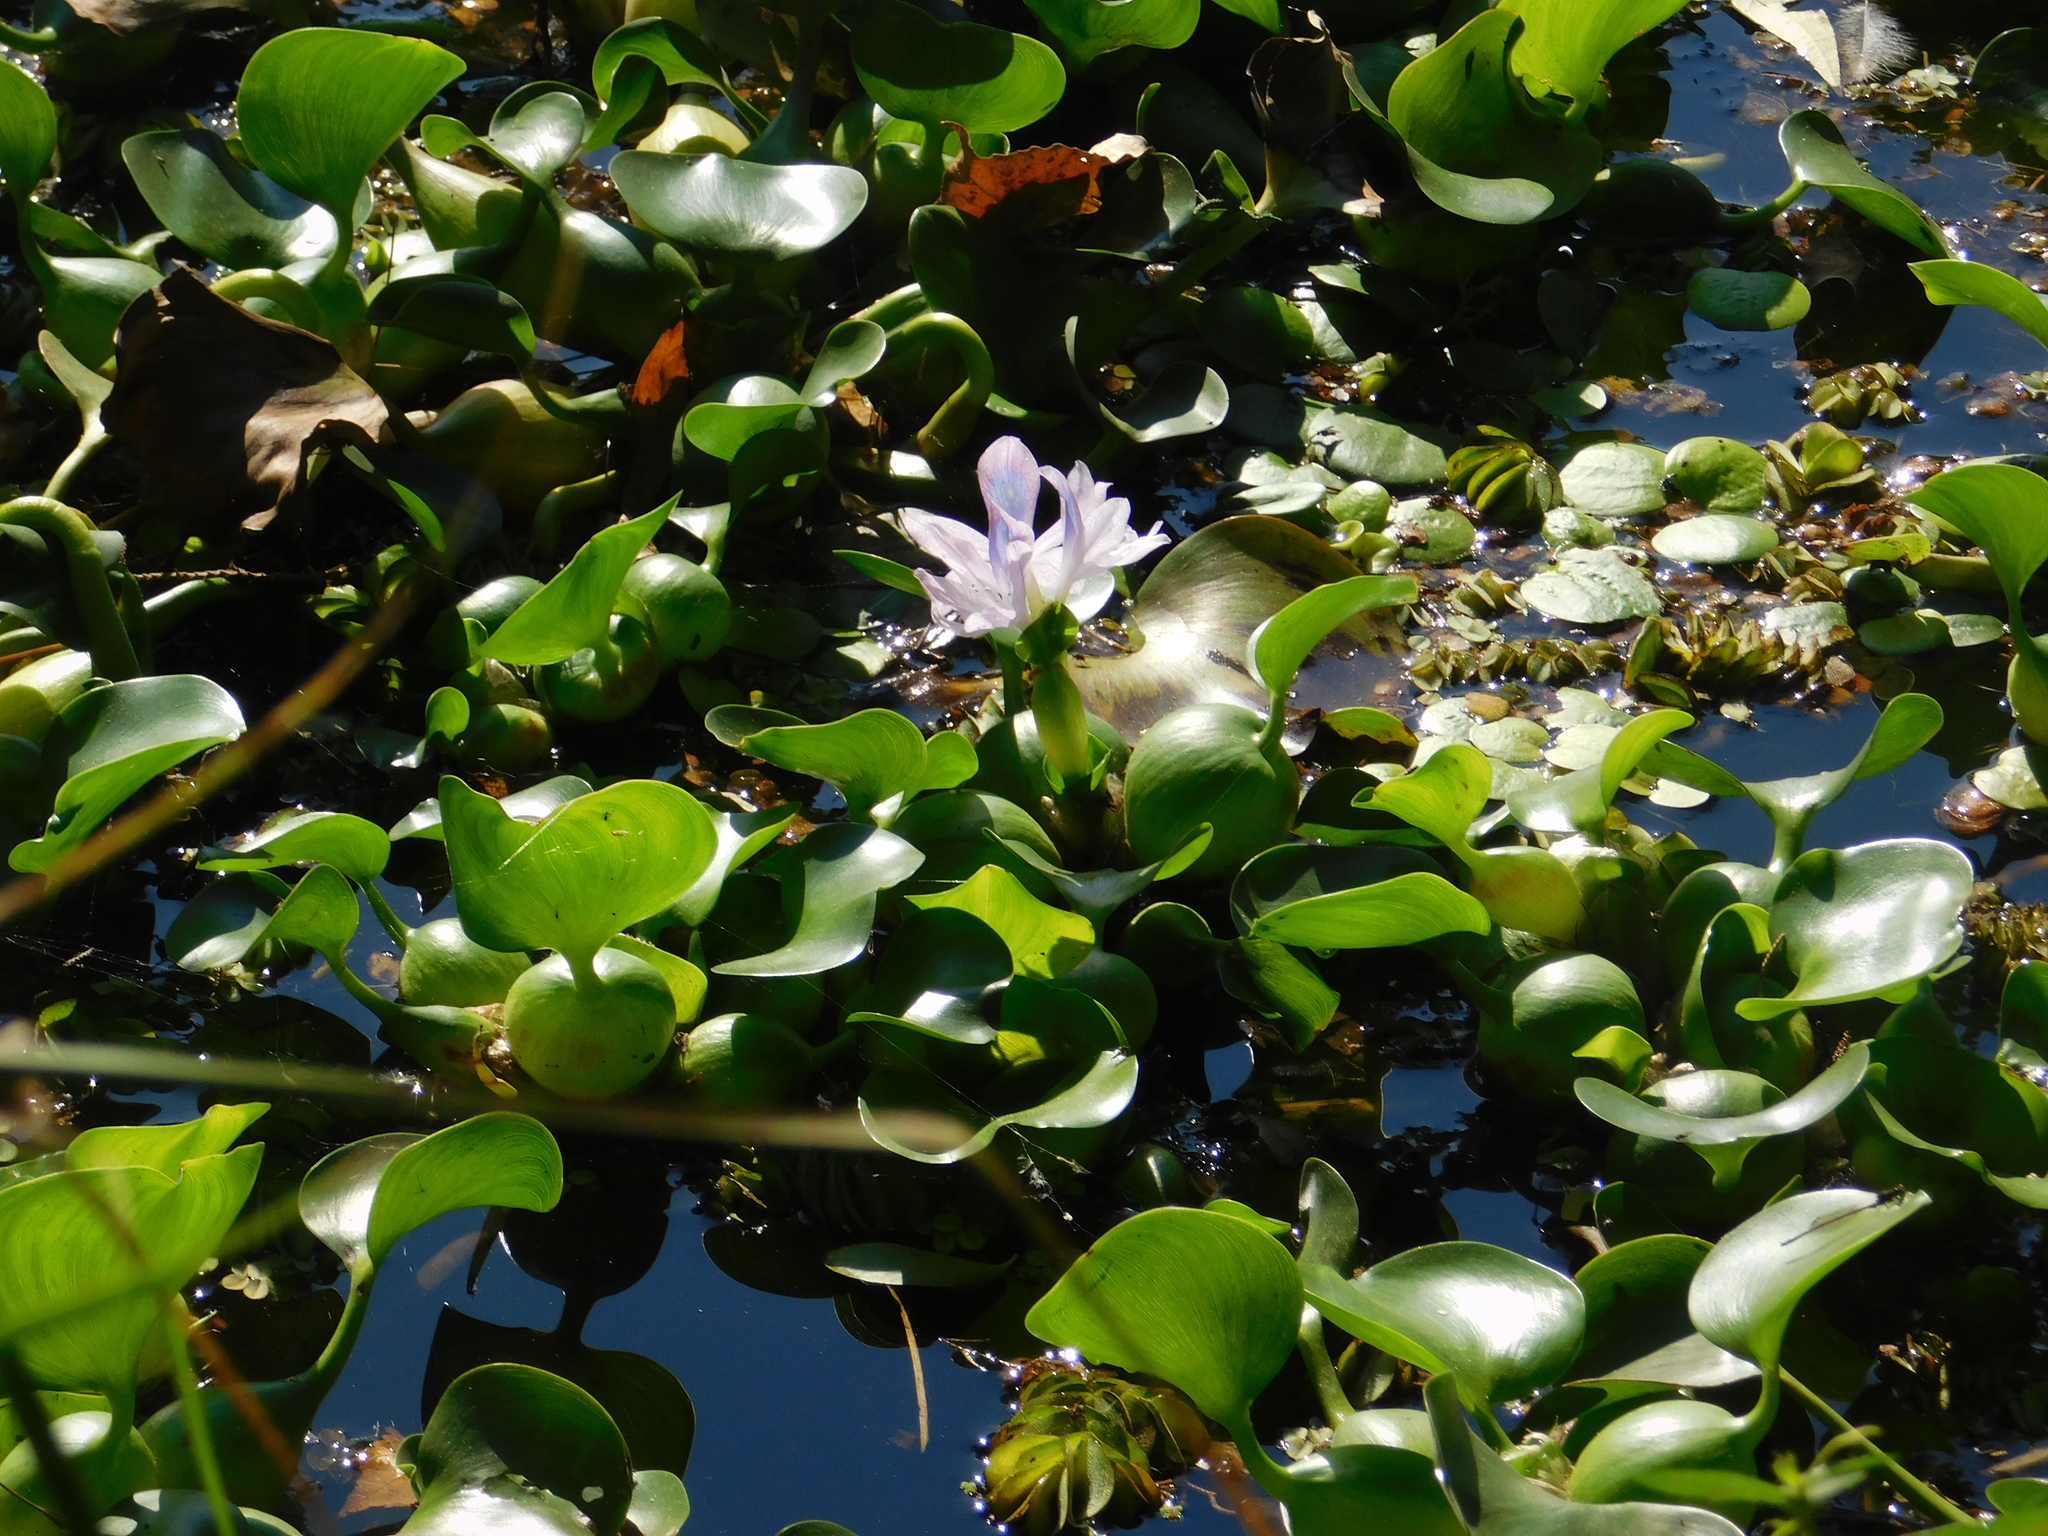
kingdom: Plantae
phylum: Tracheophyta
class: Liliopsida
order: Commelinales
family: Pontederiaceae
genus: Pontederia
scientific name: Pontederia crassipes
